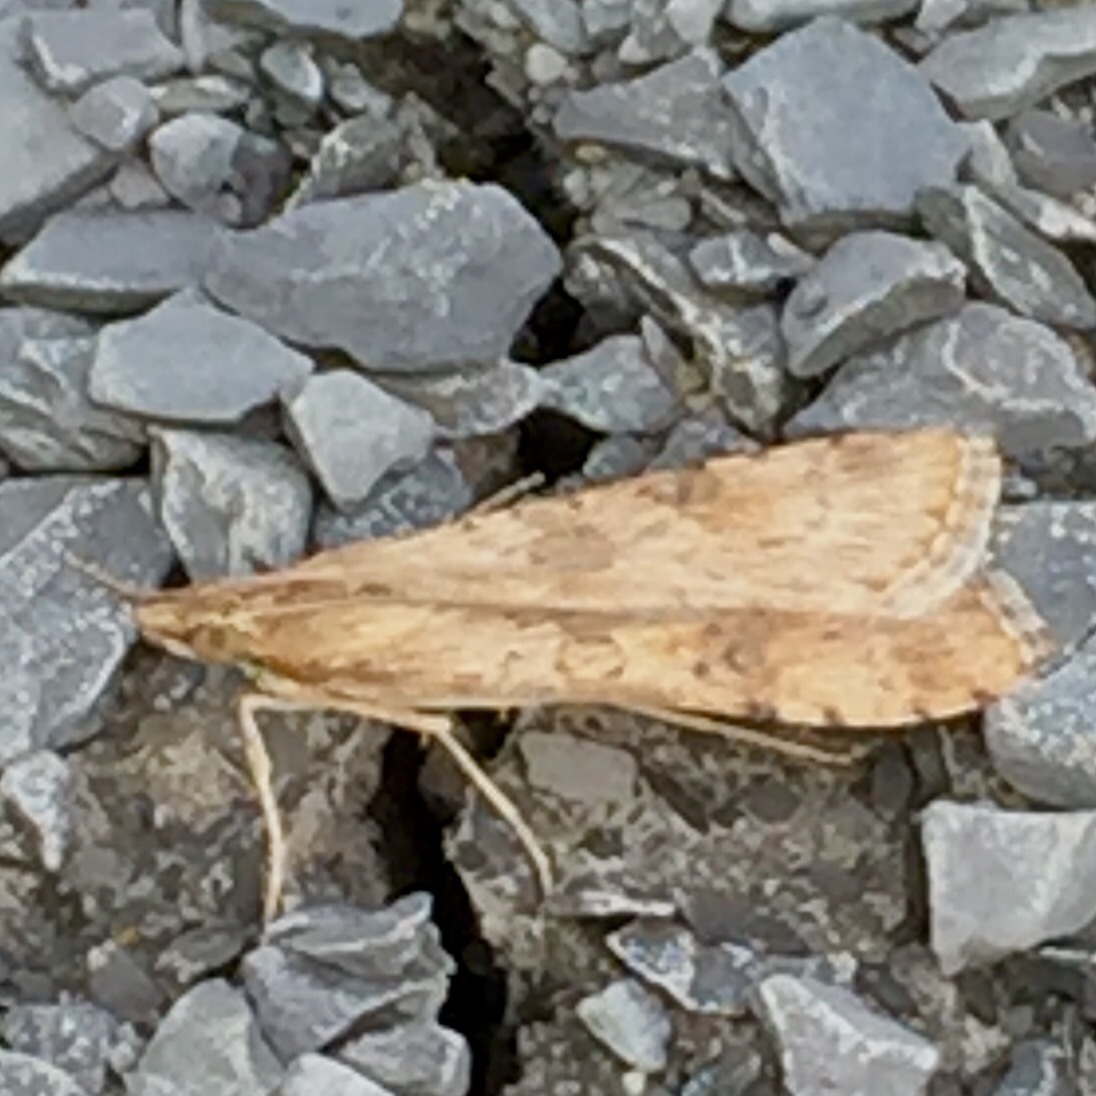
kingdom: Animalia
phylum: Arthropoda
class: Insecta
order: Lepidoptera
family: Crambidae
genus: Nomophila
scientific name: Nomophila nearctica
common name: American rush veneer
